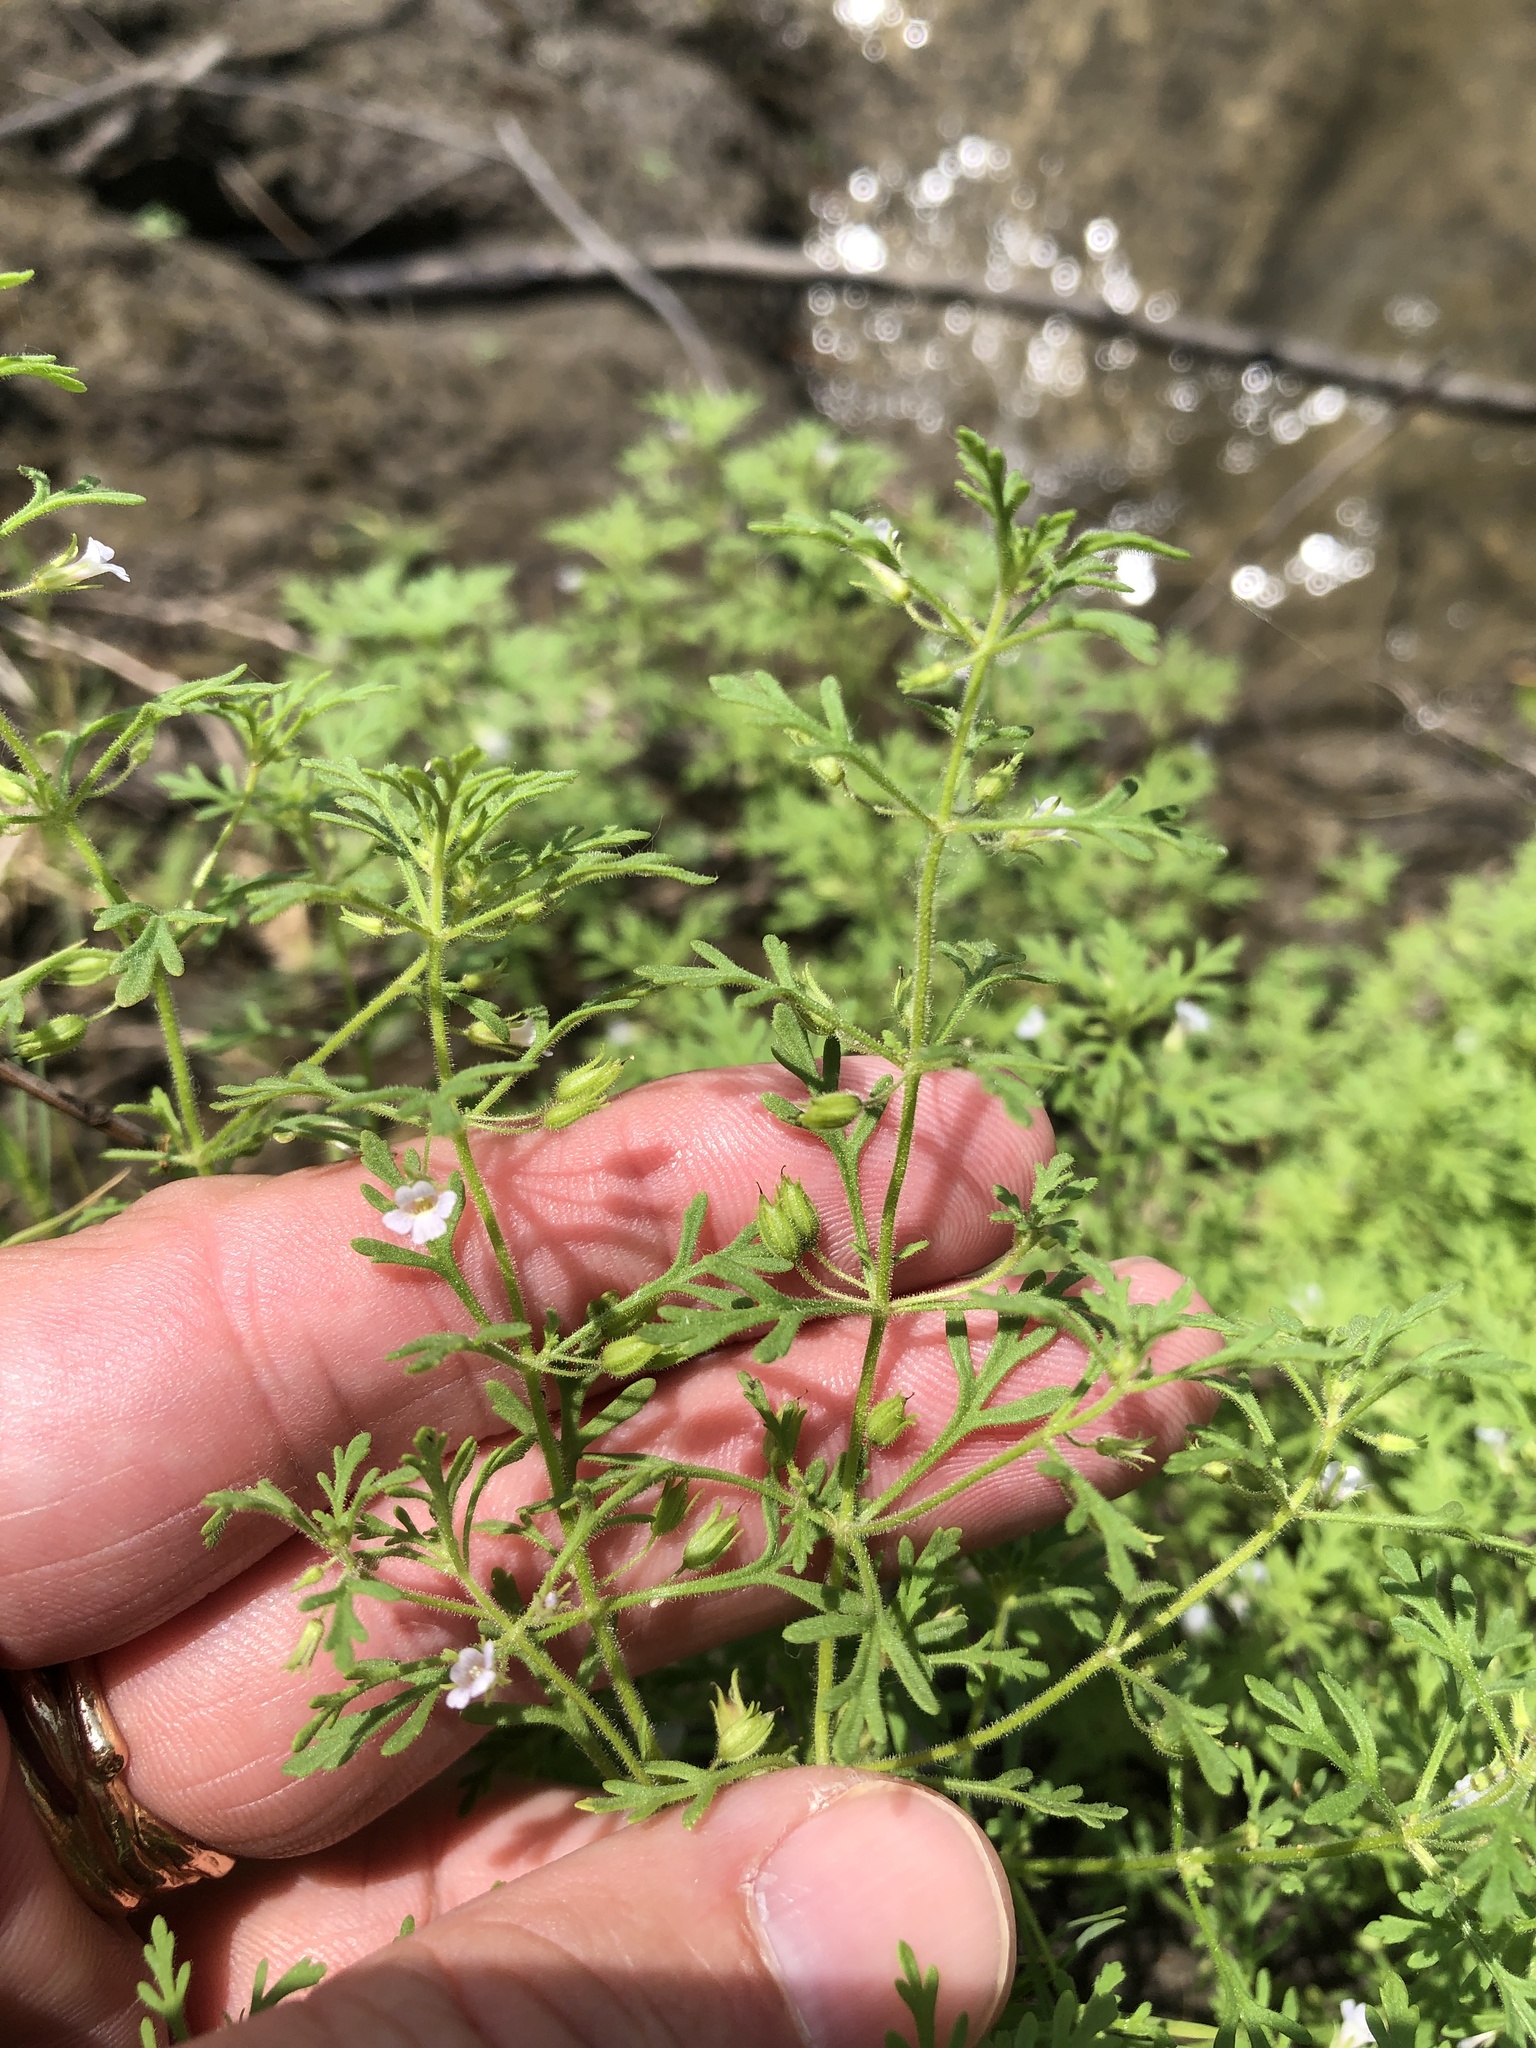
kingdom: Plantae
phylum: Tracheophyta
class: Magnoliopsida
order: Lamiales
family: Plantaginaceae
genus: Leucospora
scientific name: Leucospora multifida
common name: Narrow-leaf paleseed
